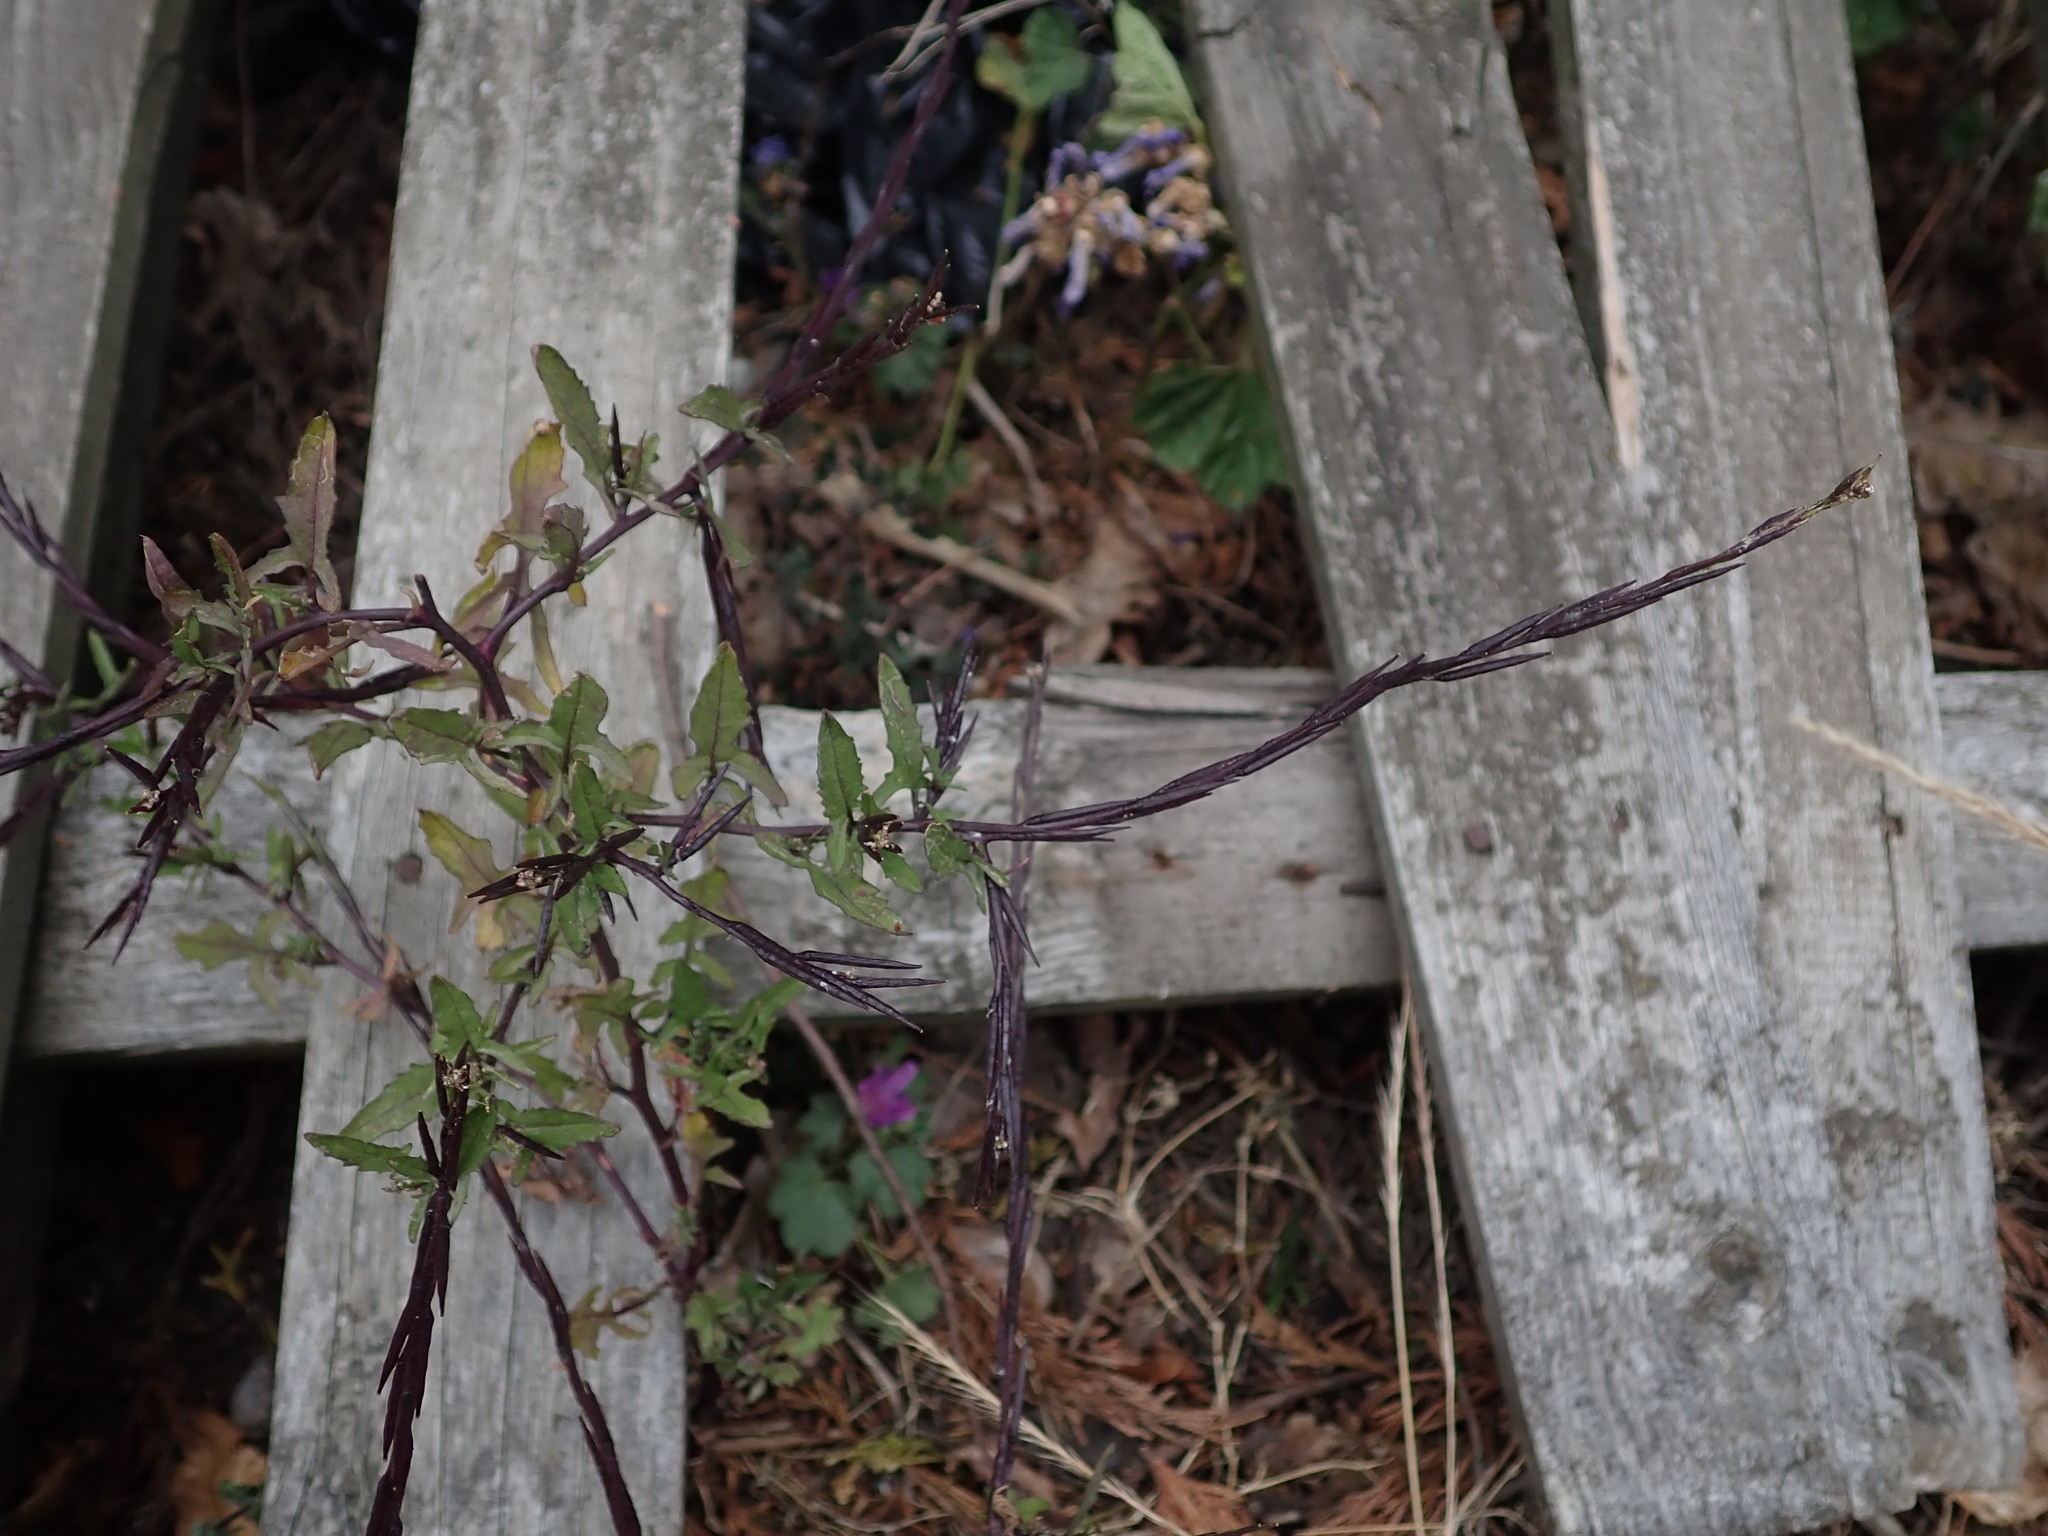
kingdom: Plantae
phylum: Tracheophyta
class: Magnoliopsida
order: Brassicales
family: Brassicaceae
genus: Sisymbrium
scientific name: Sisymbrium officinale
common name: Hedge mustard
